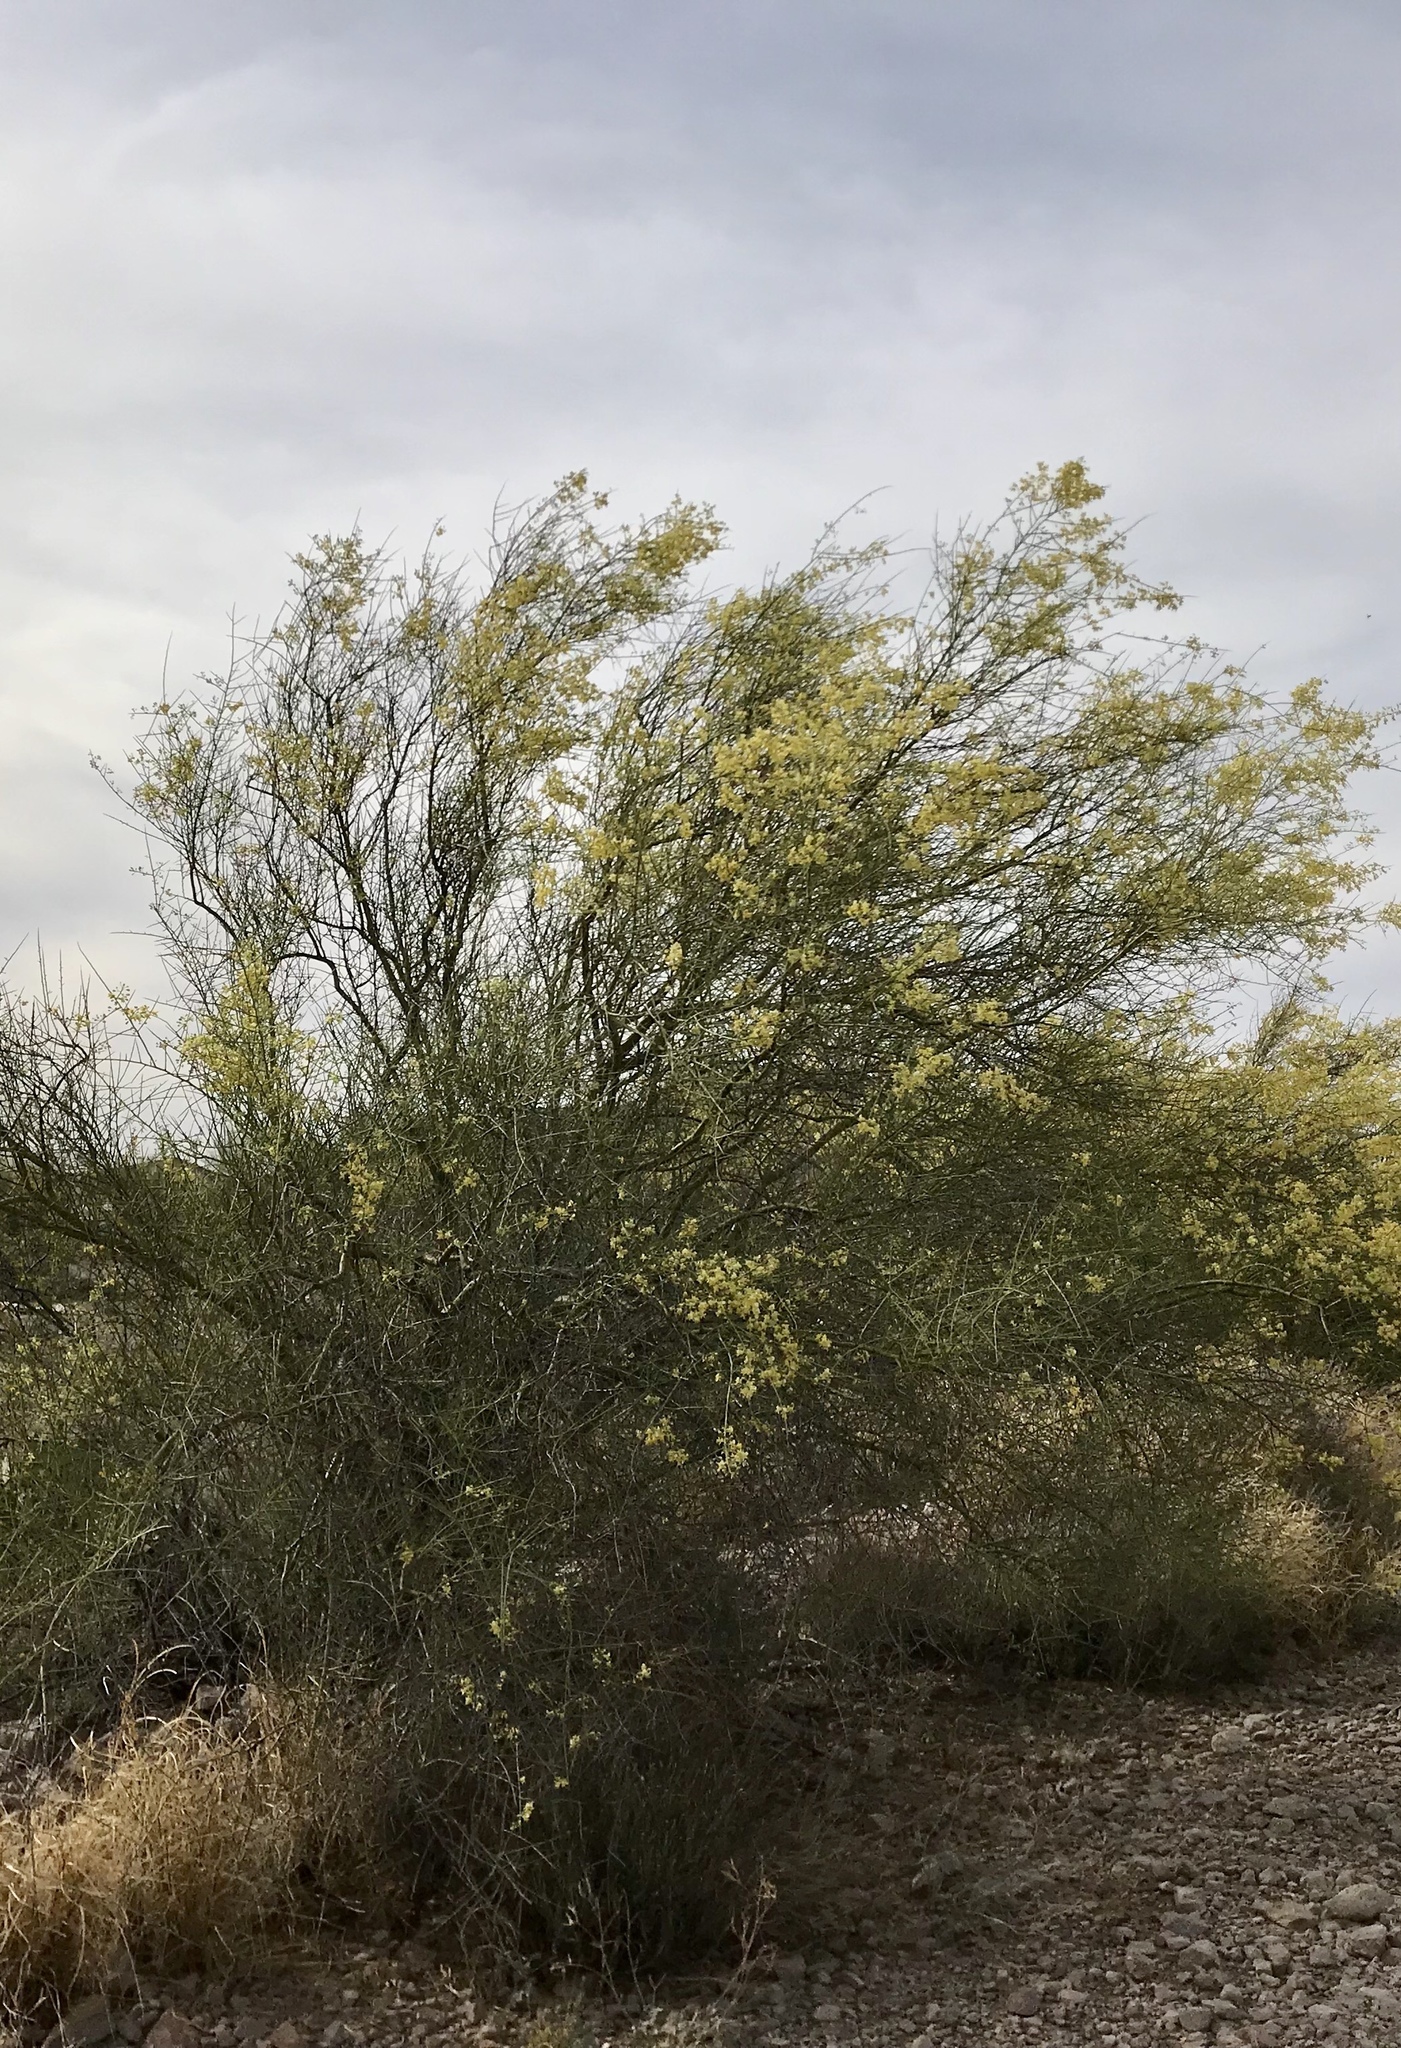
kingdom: Plantae
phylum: Tracheophyta
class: Magnoliopsida
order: Fabales
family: Fabaceae
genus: Parkinsonia
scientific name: Parkinsonia microphylla
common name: Yellow paloverde
